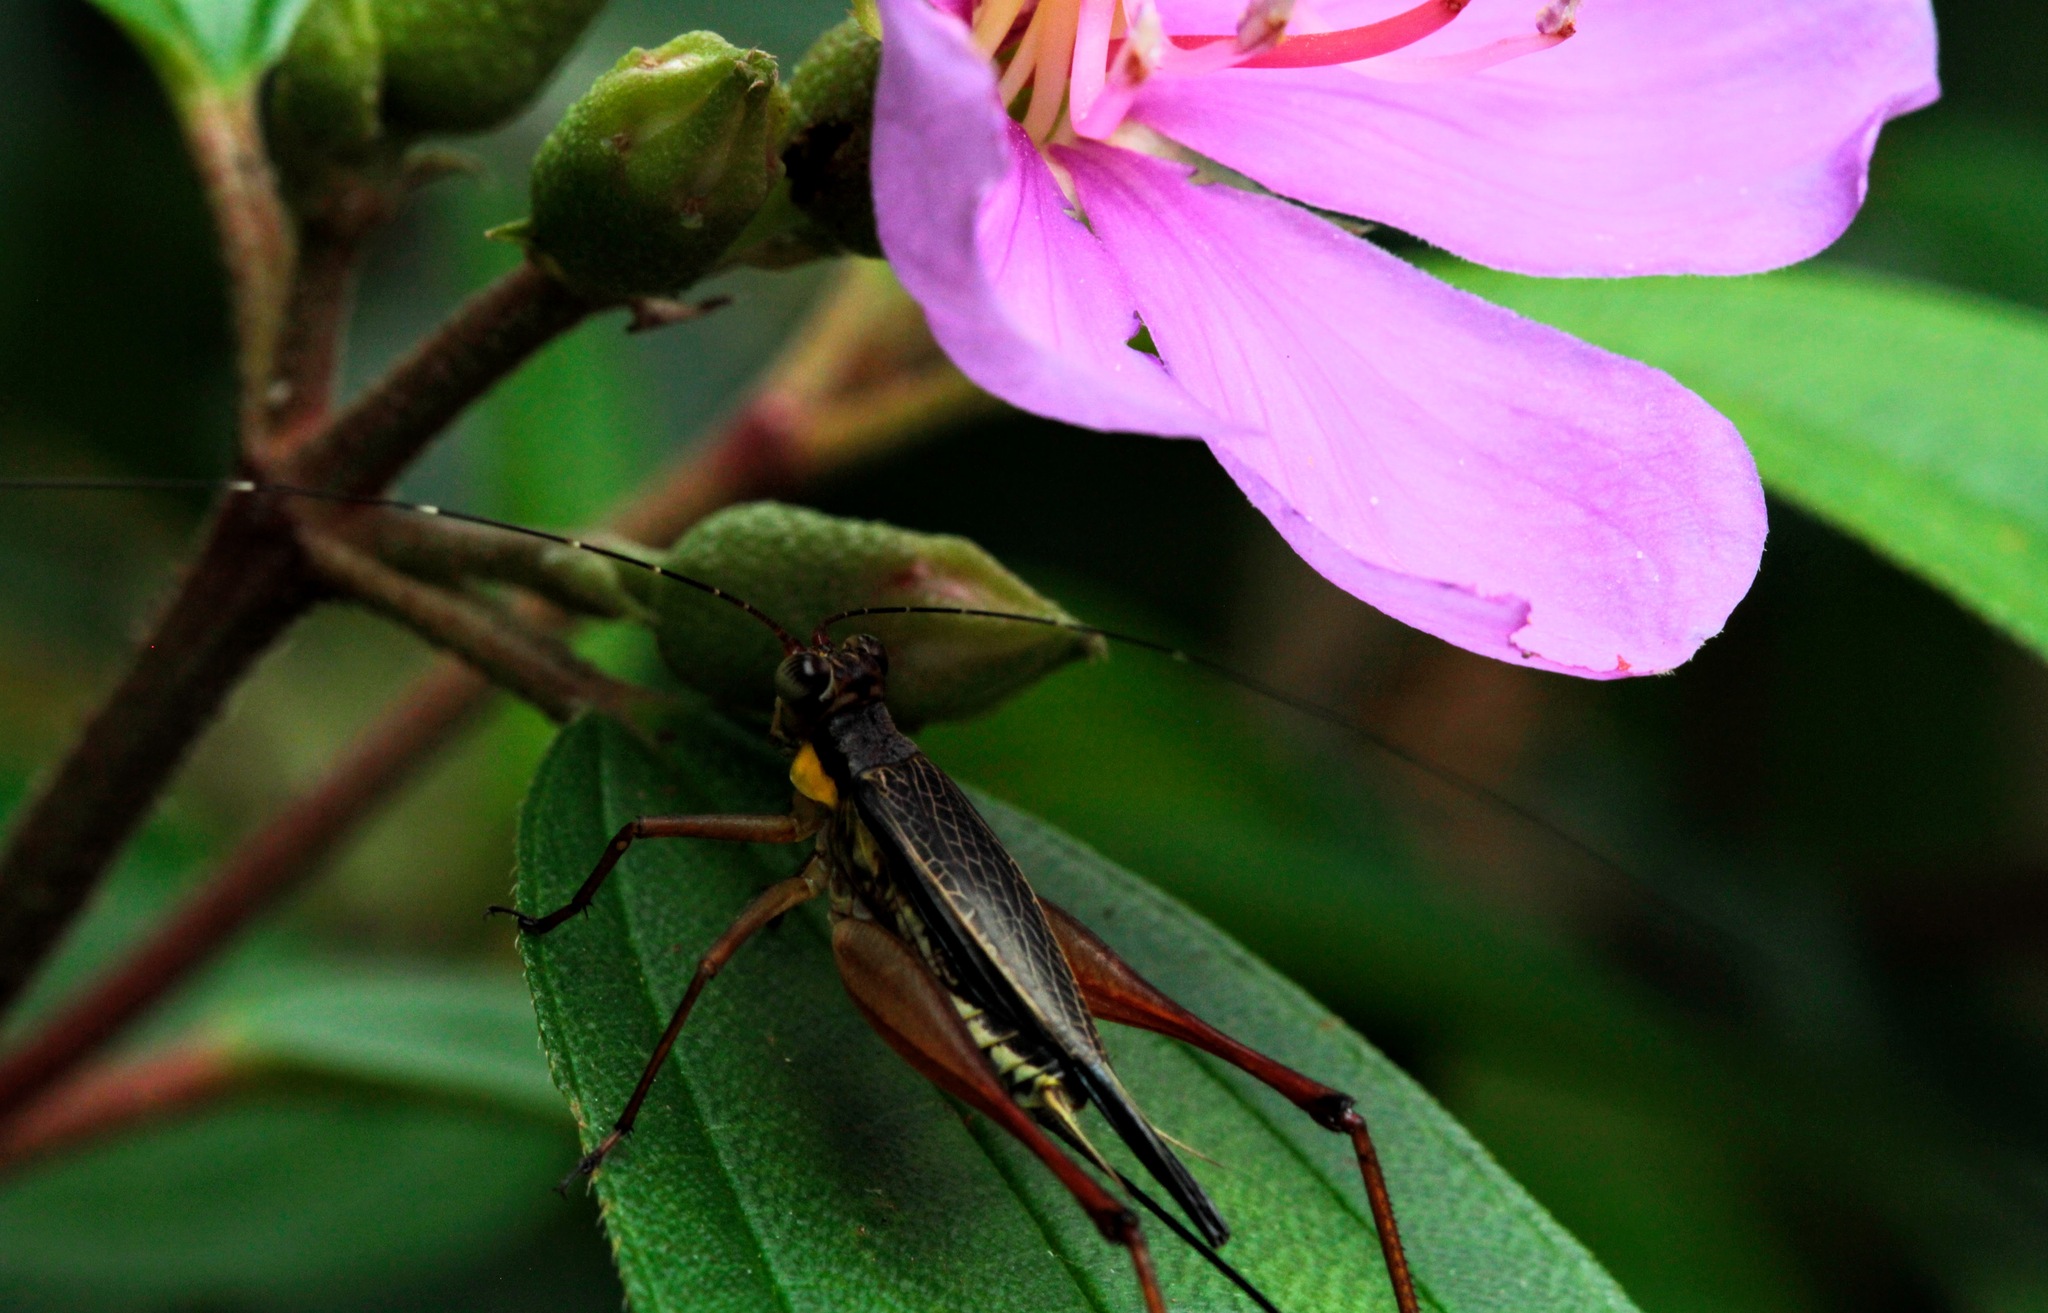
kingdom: Animalia
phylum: Arthropoda
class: Insecta
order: Orthoptera
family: Gryllidae
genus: Nisitrus
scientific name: Nisitrus malaya
